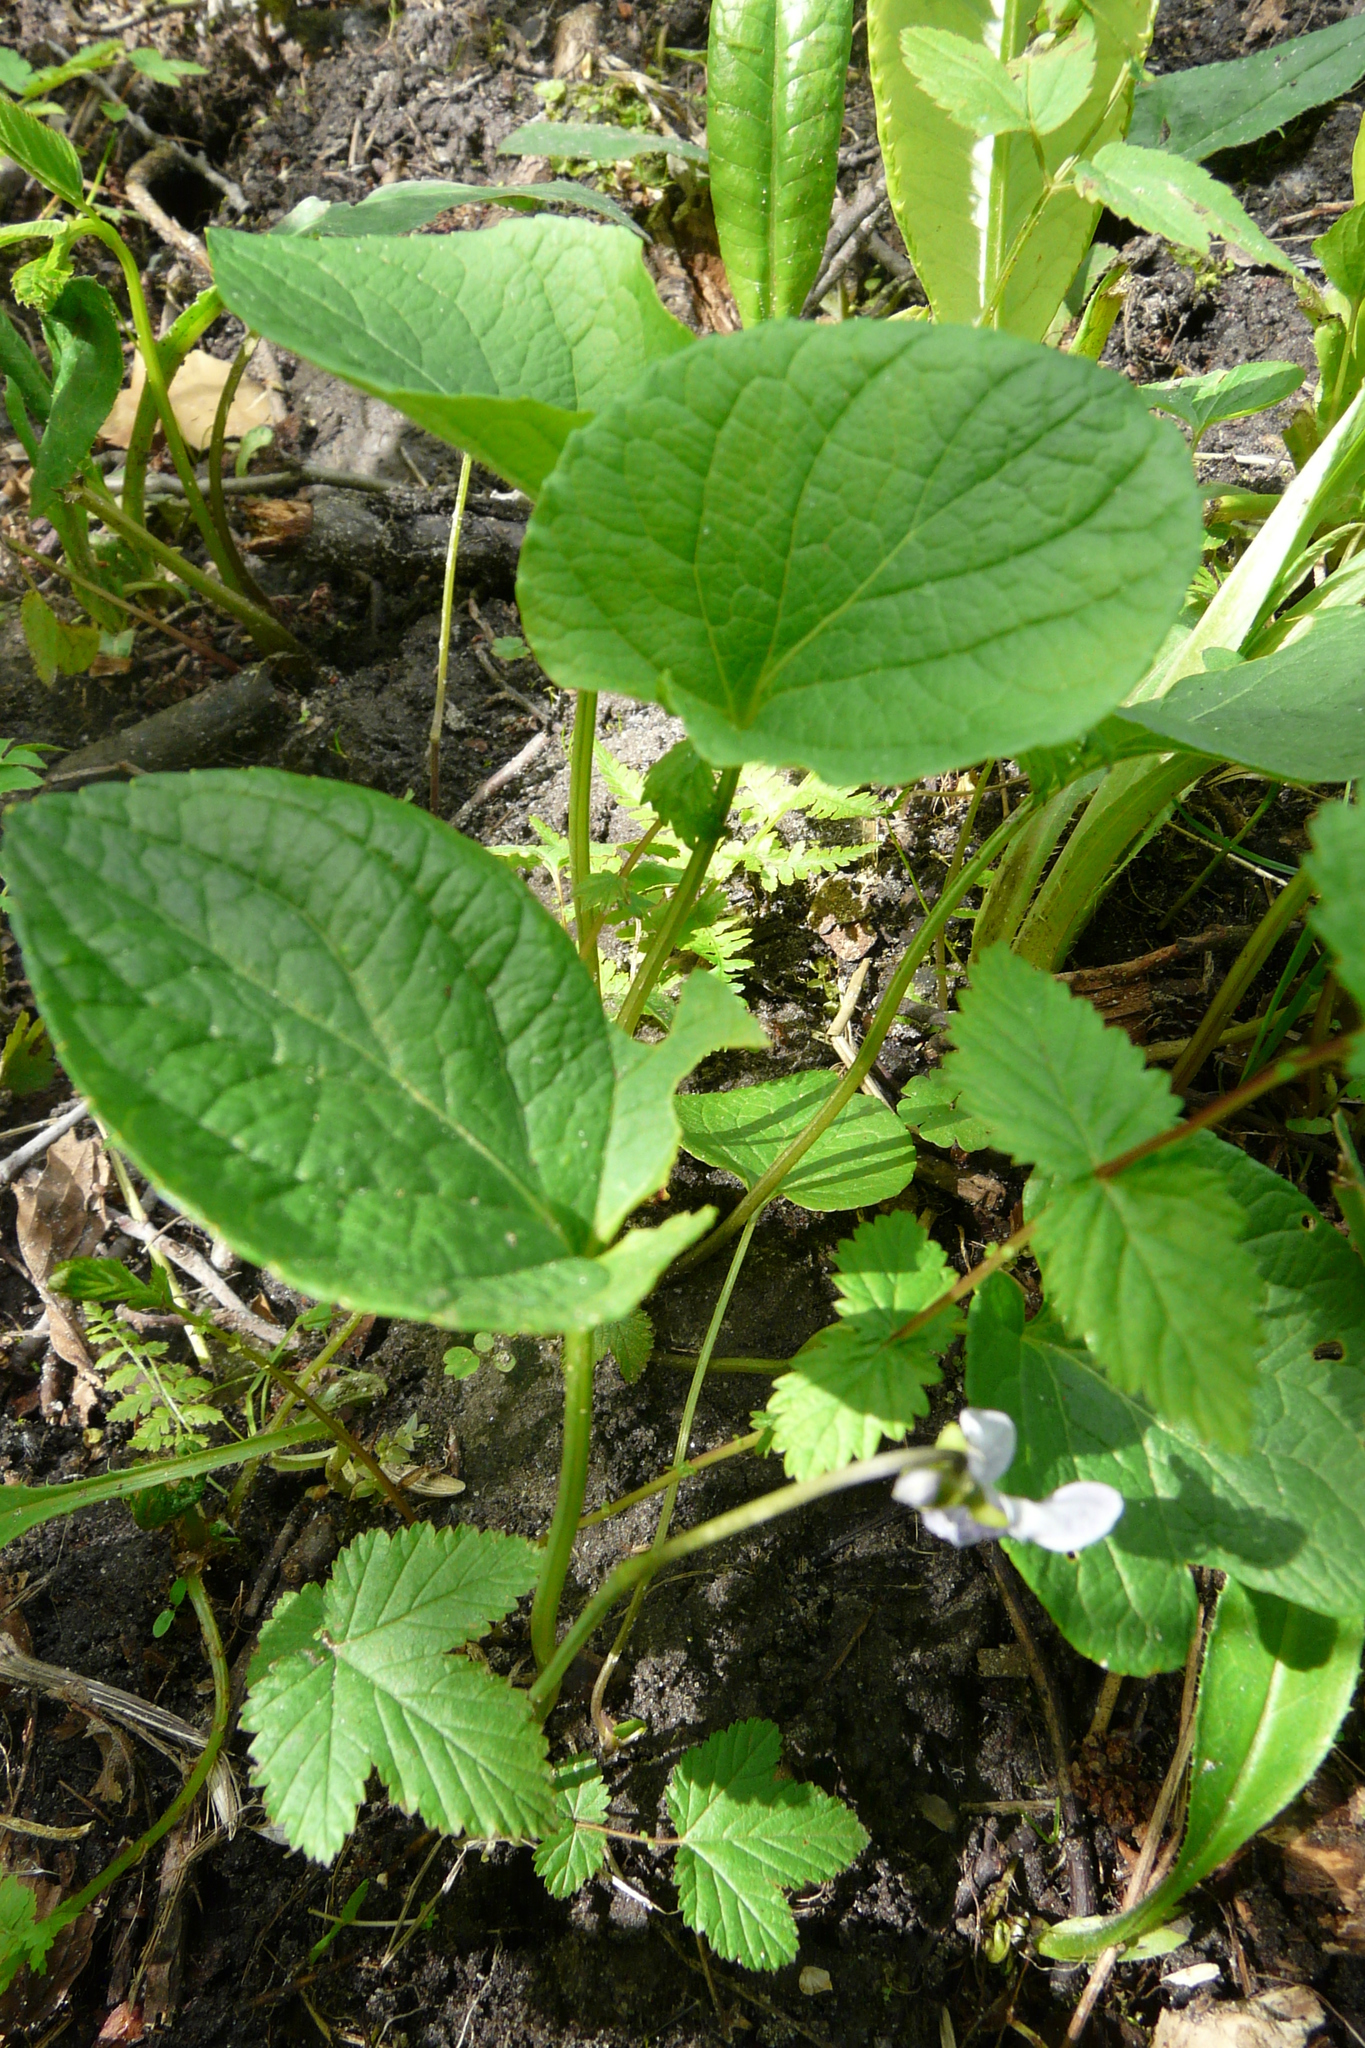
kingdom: Plantae
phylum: Tracheophyta
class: Magnoliopsida
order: Malpighiales
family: Violaceae
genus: Viola
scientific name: Viola epipsila
